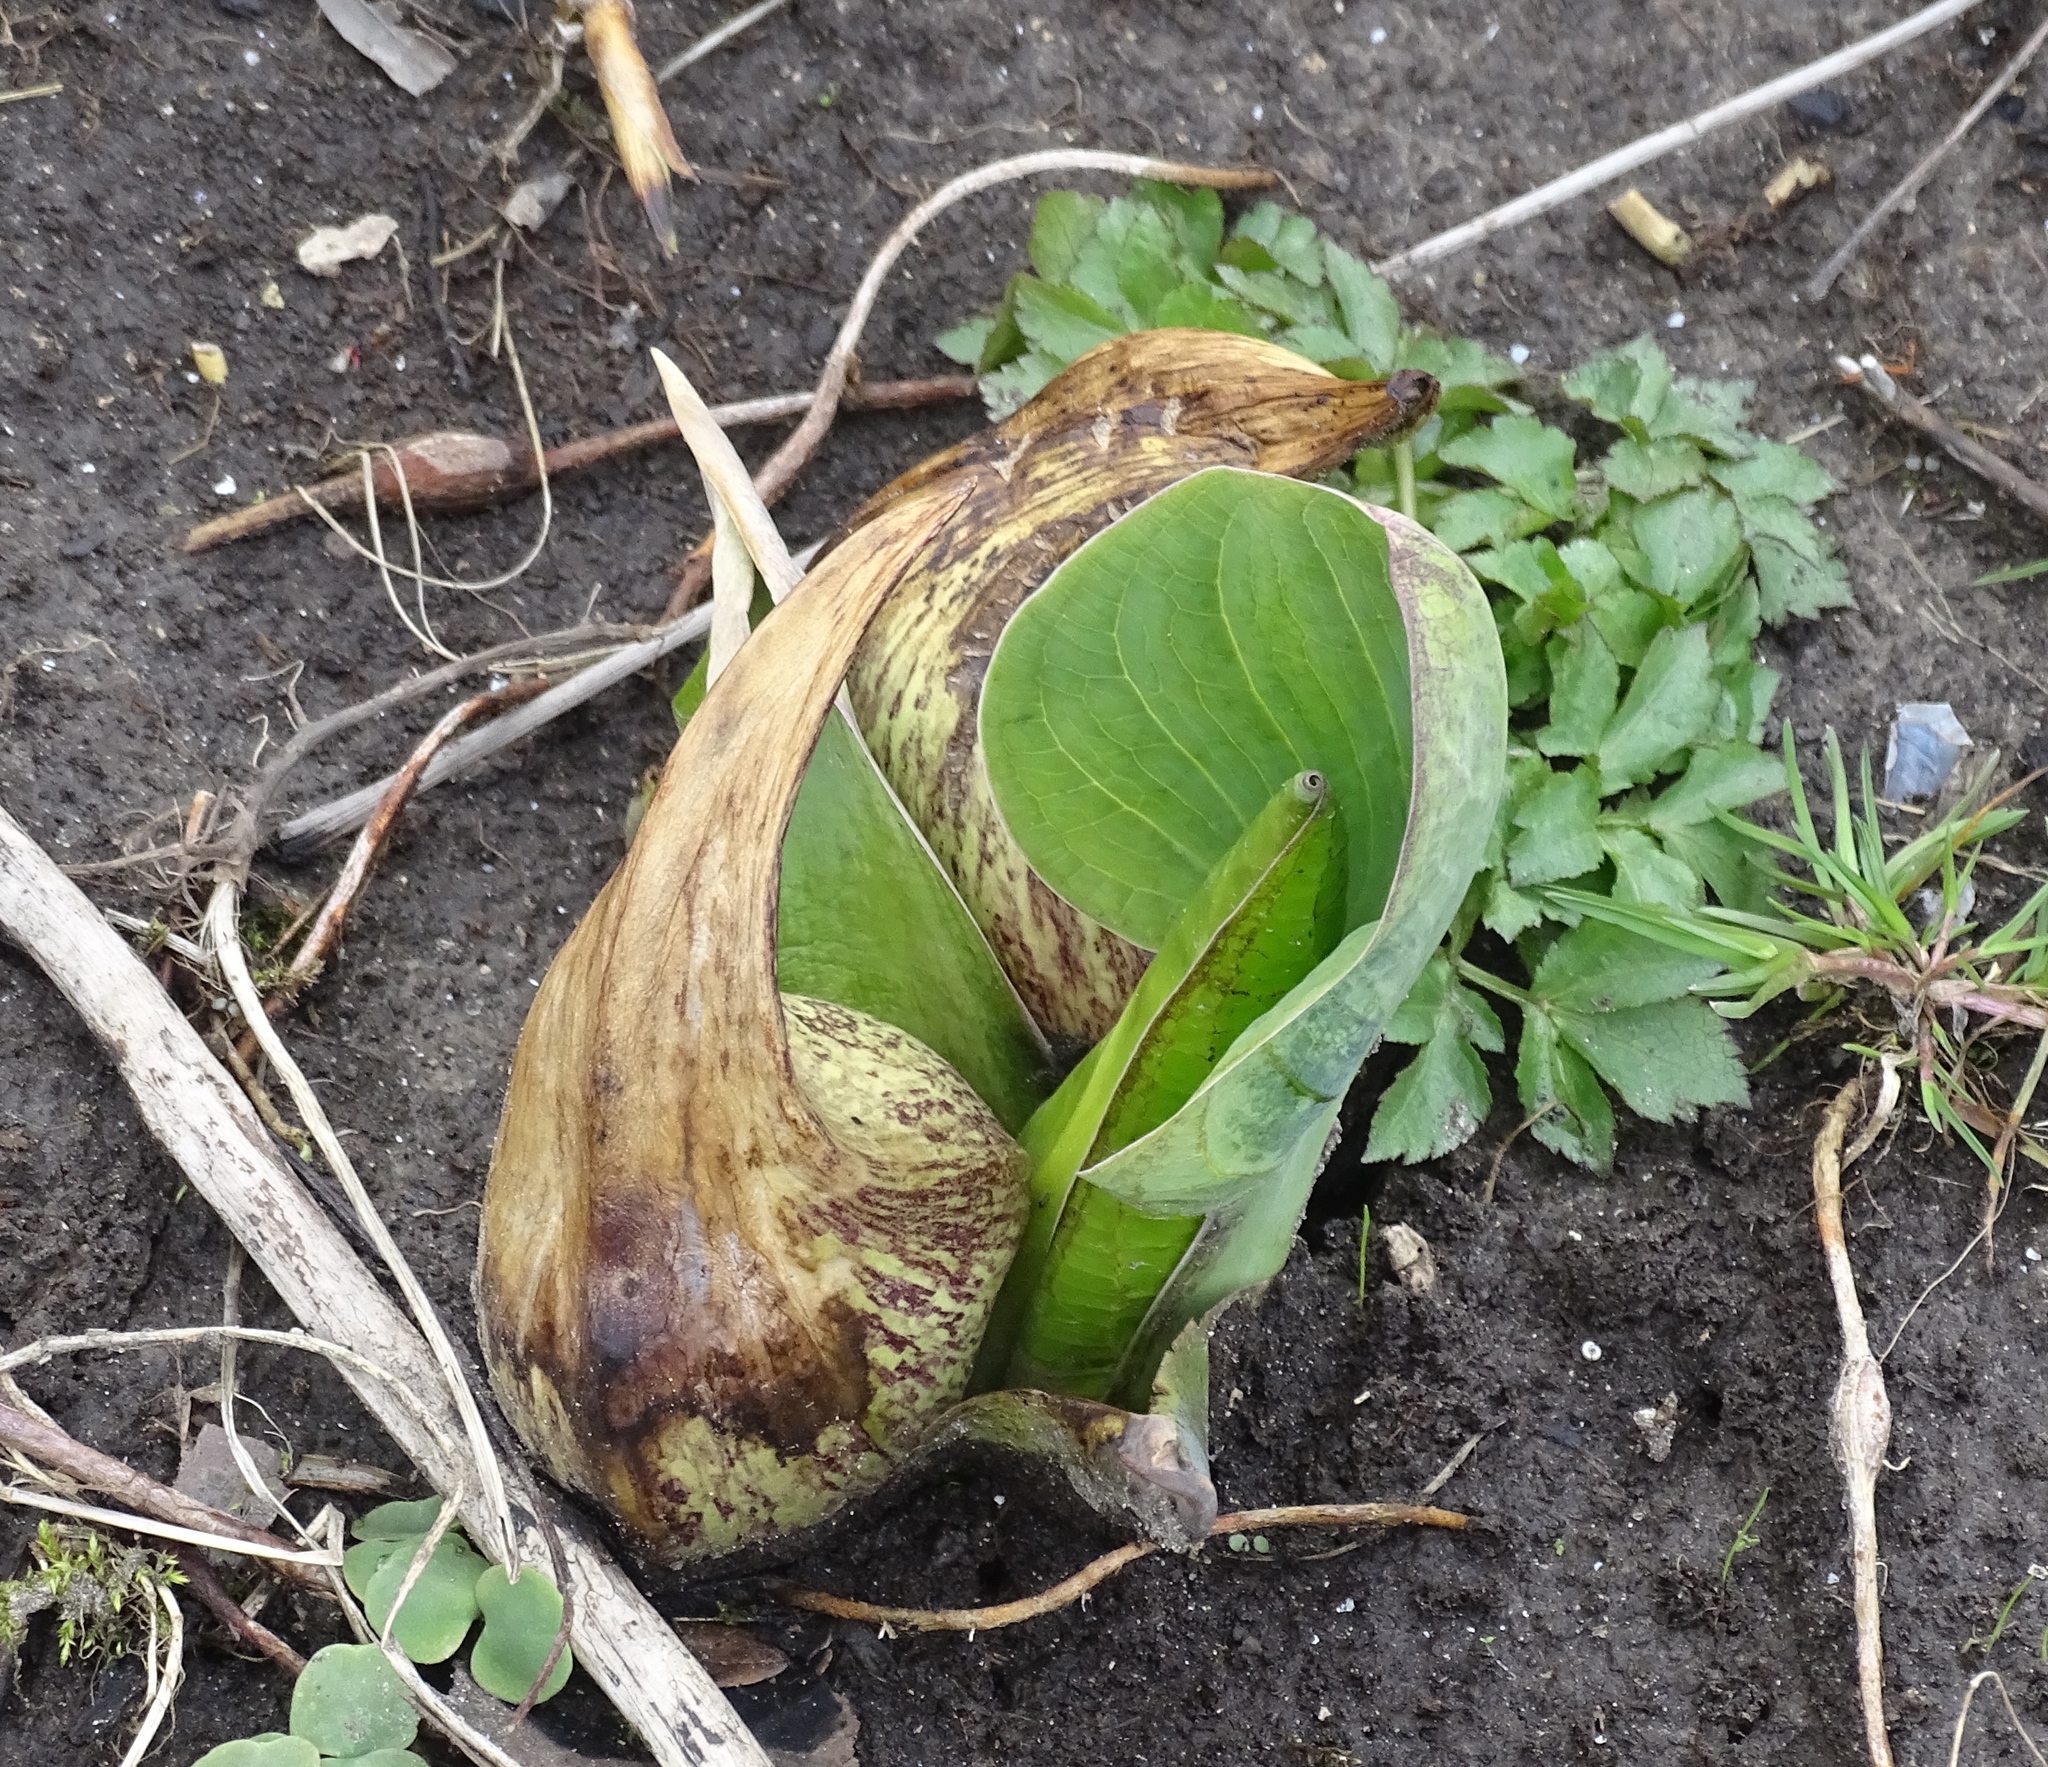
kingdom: Plantae
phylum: Tracheophyta
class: Liliopsida
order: Alismatales
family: Araceae
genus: Symplocarpus
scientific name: Symplocarpus foetidus
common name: Eastern skunk cabbage
